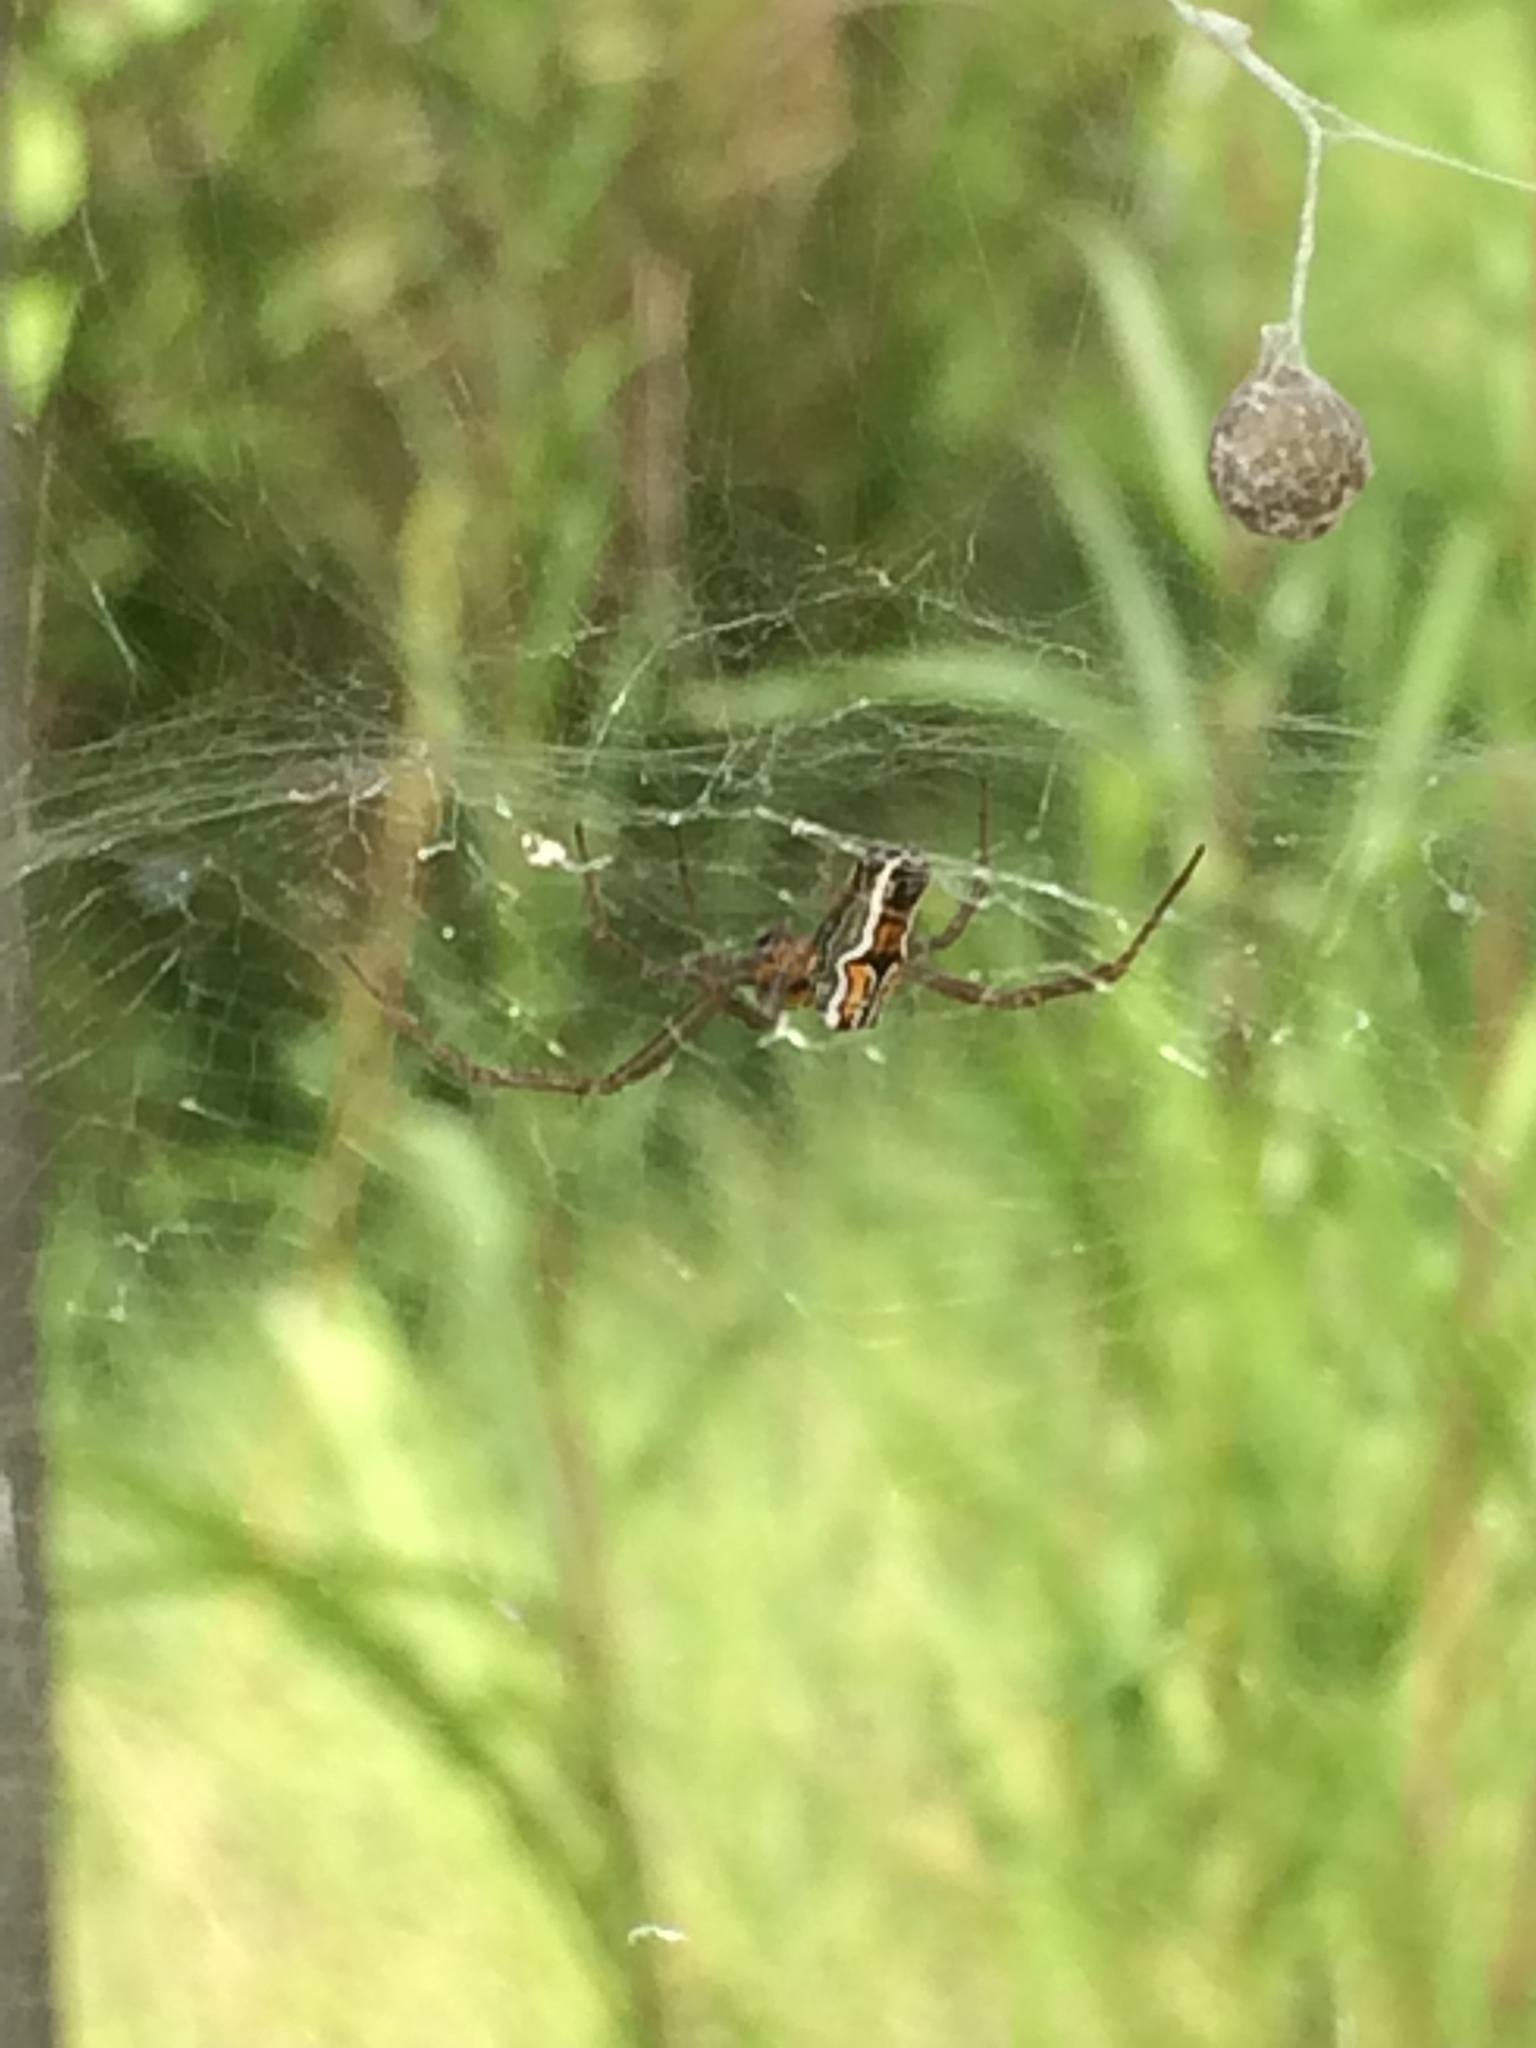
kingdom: Animalia
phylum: Arthropoda
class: Arachnida
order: Araneae
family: Araneidae
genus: Mecynogea
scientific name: Mecynogea lemniscata
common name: Orb weavers
